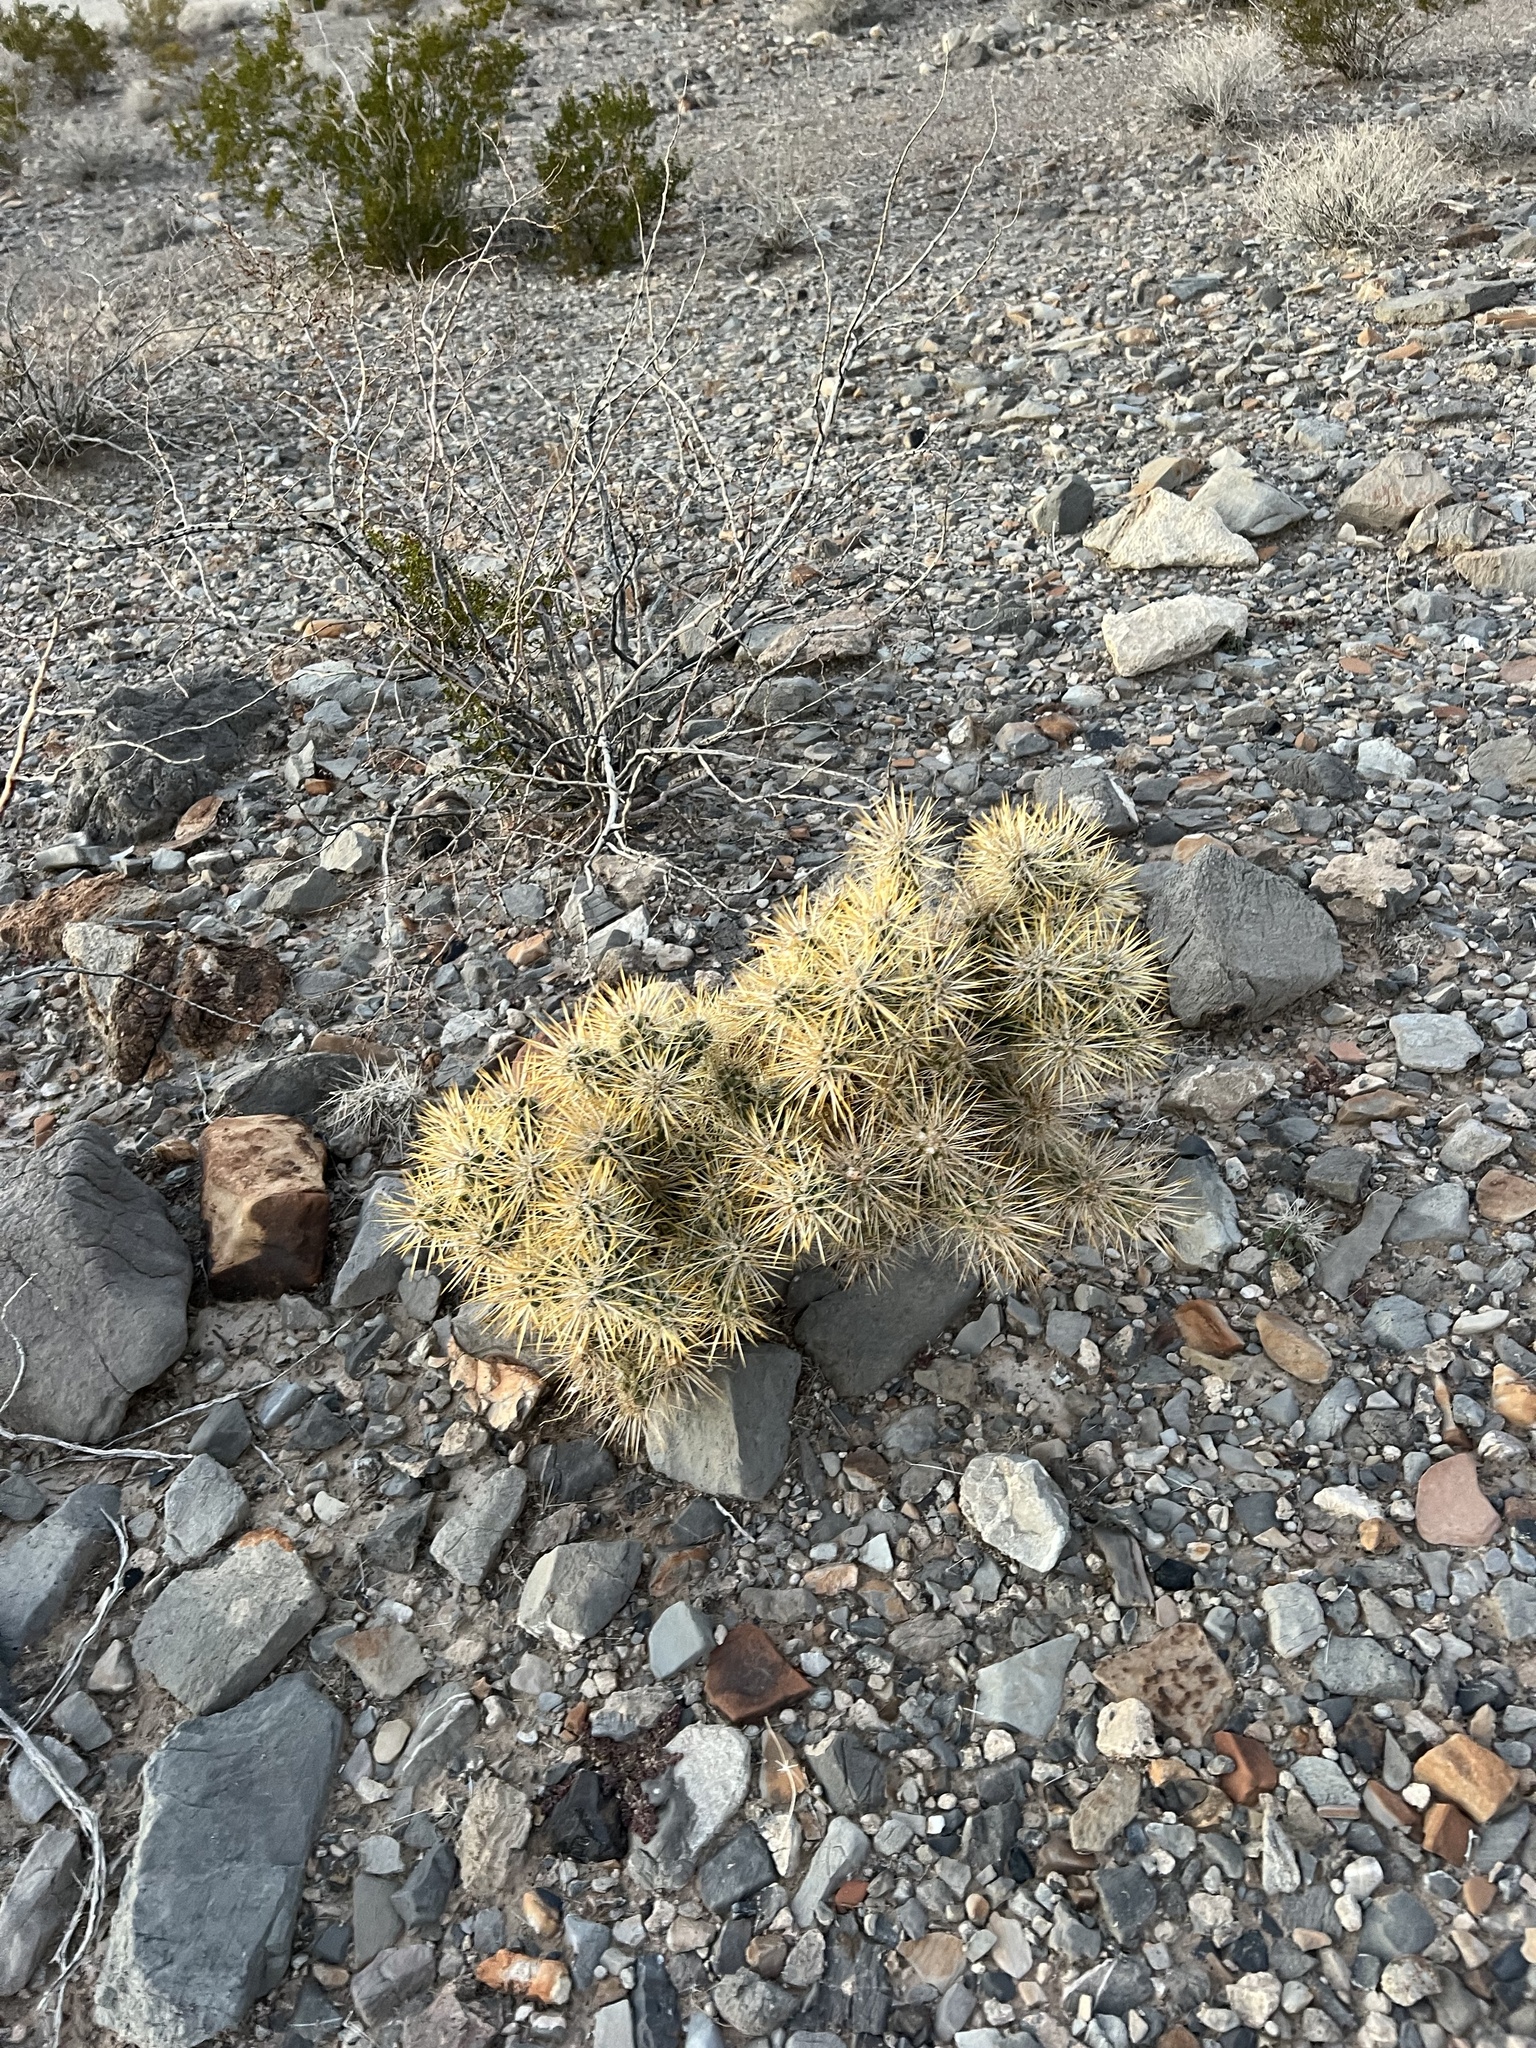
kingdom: Plantae
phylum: Tracheophyta
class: Magnoliopsida
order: Caryophyllales
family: Cactaceae
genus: Cylindropuntia
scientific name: Cylindropuntia echinocarpa
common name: Ground cholla
